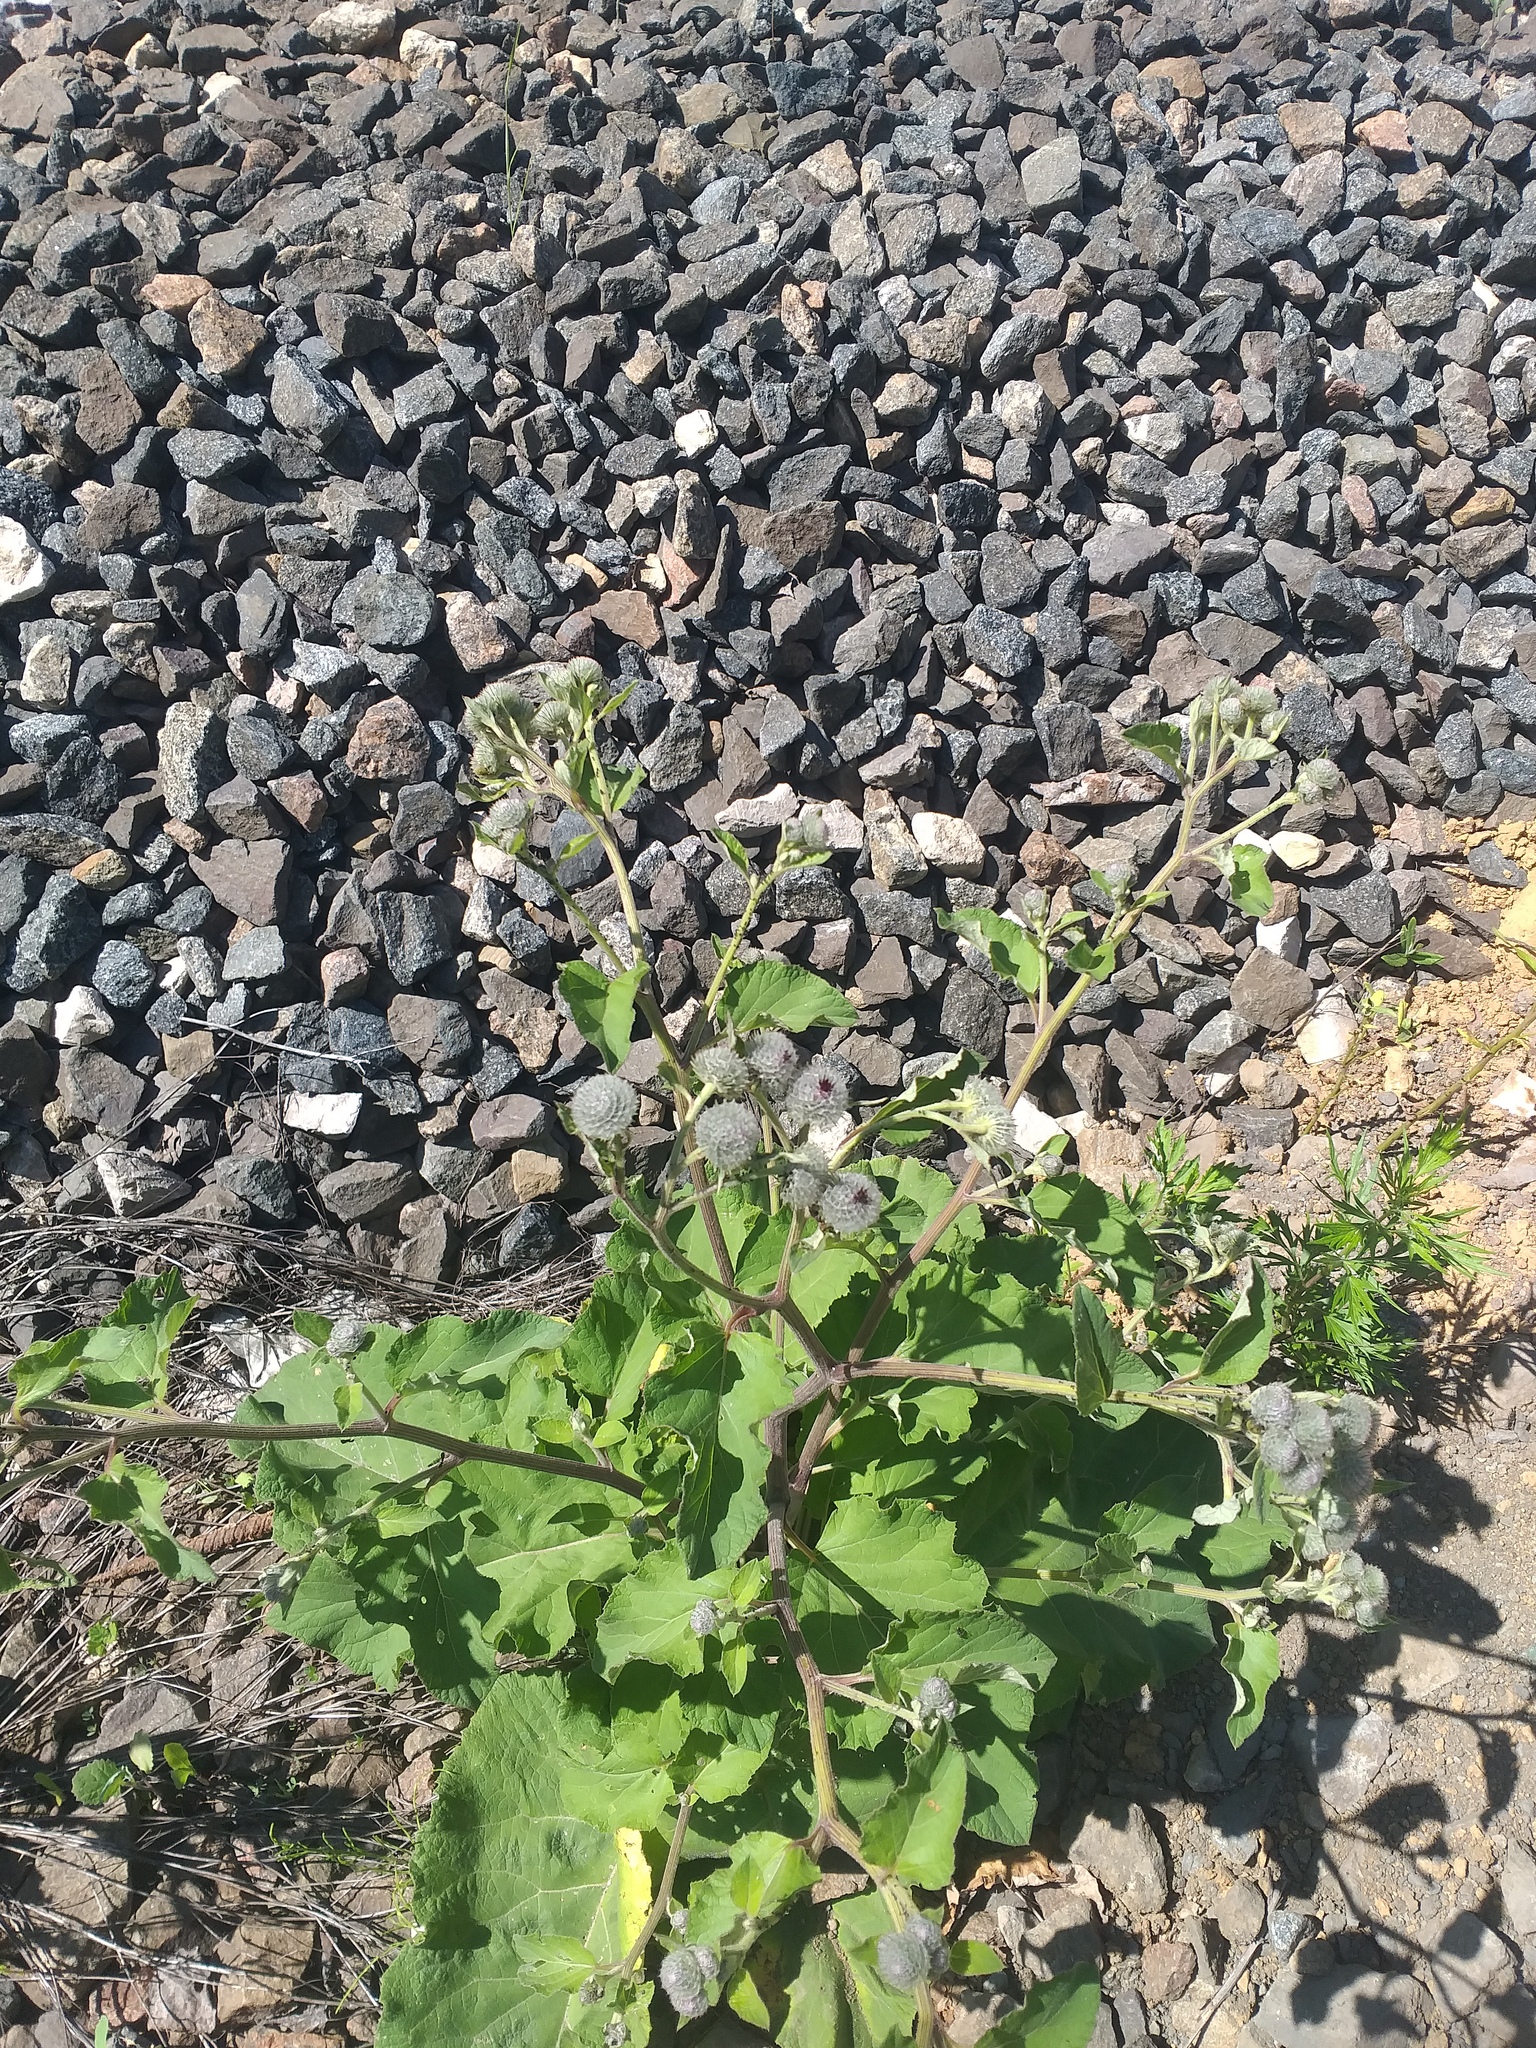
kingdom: Plantae
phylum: Tracheophyta
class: Magnoliopsida
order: Asterales
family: Asteraceae
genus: Arctium
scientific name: Arctium tomentosum
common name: Woolly burdock
